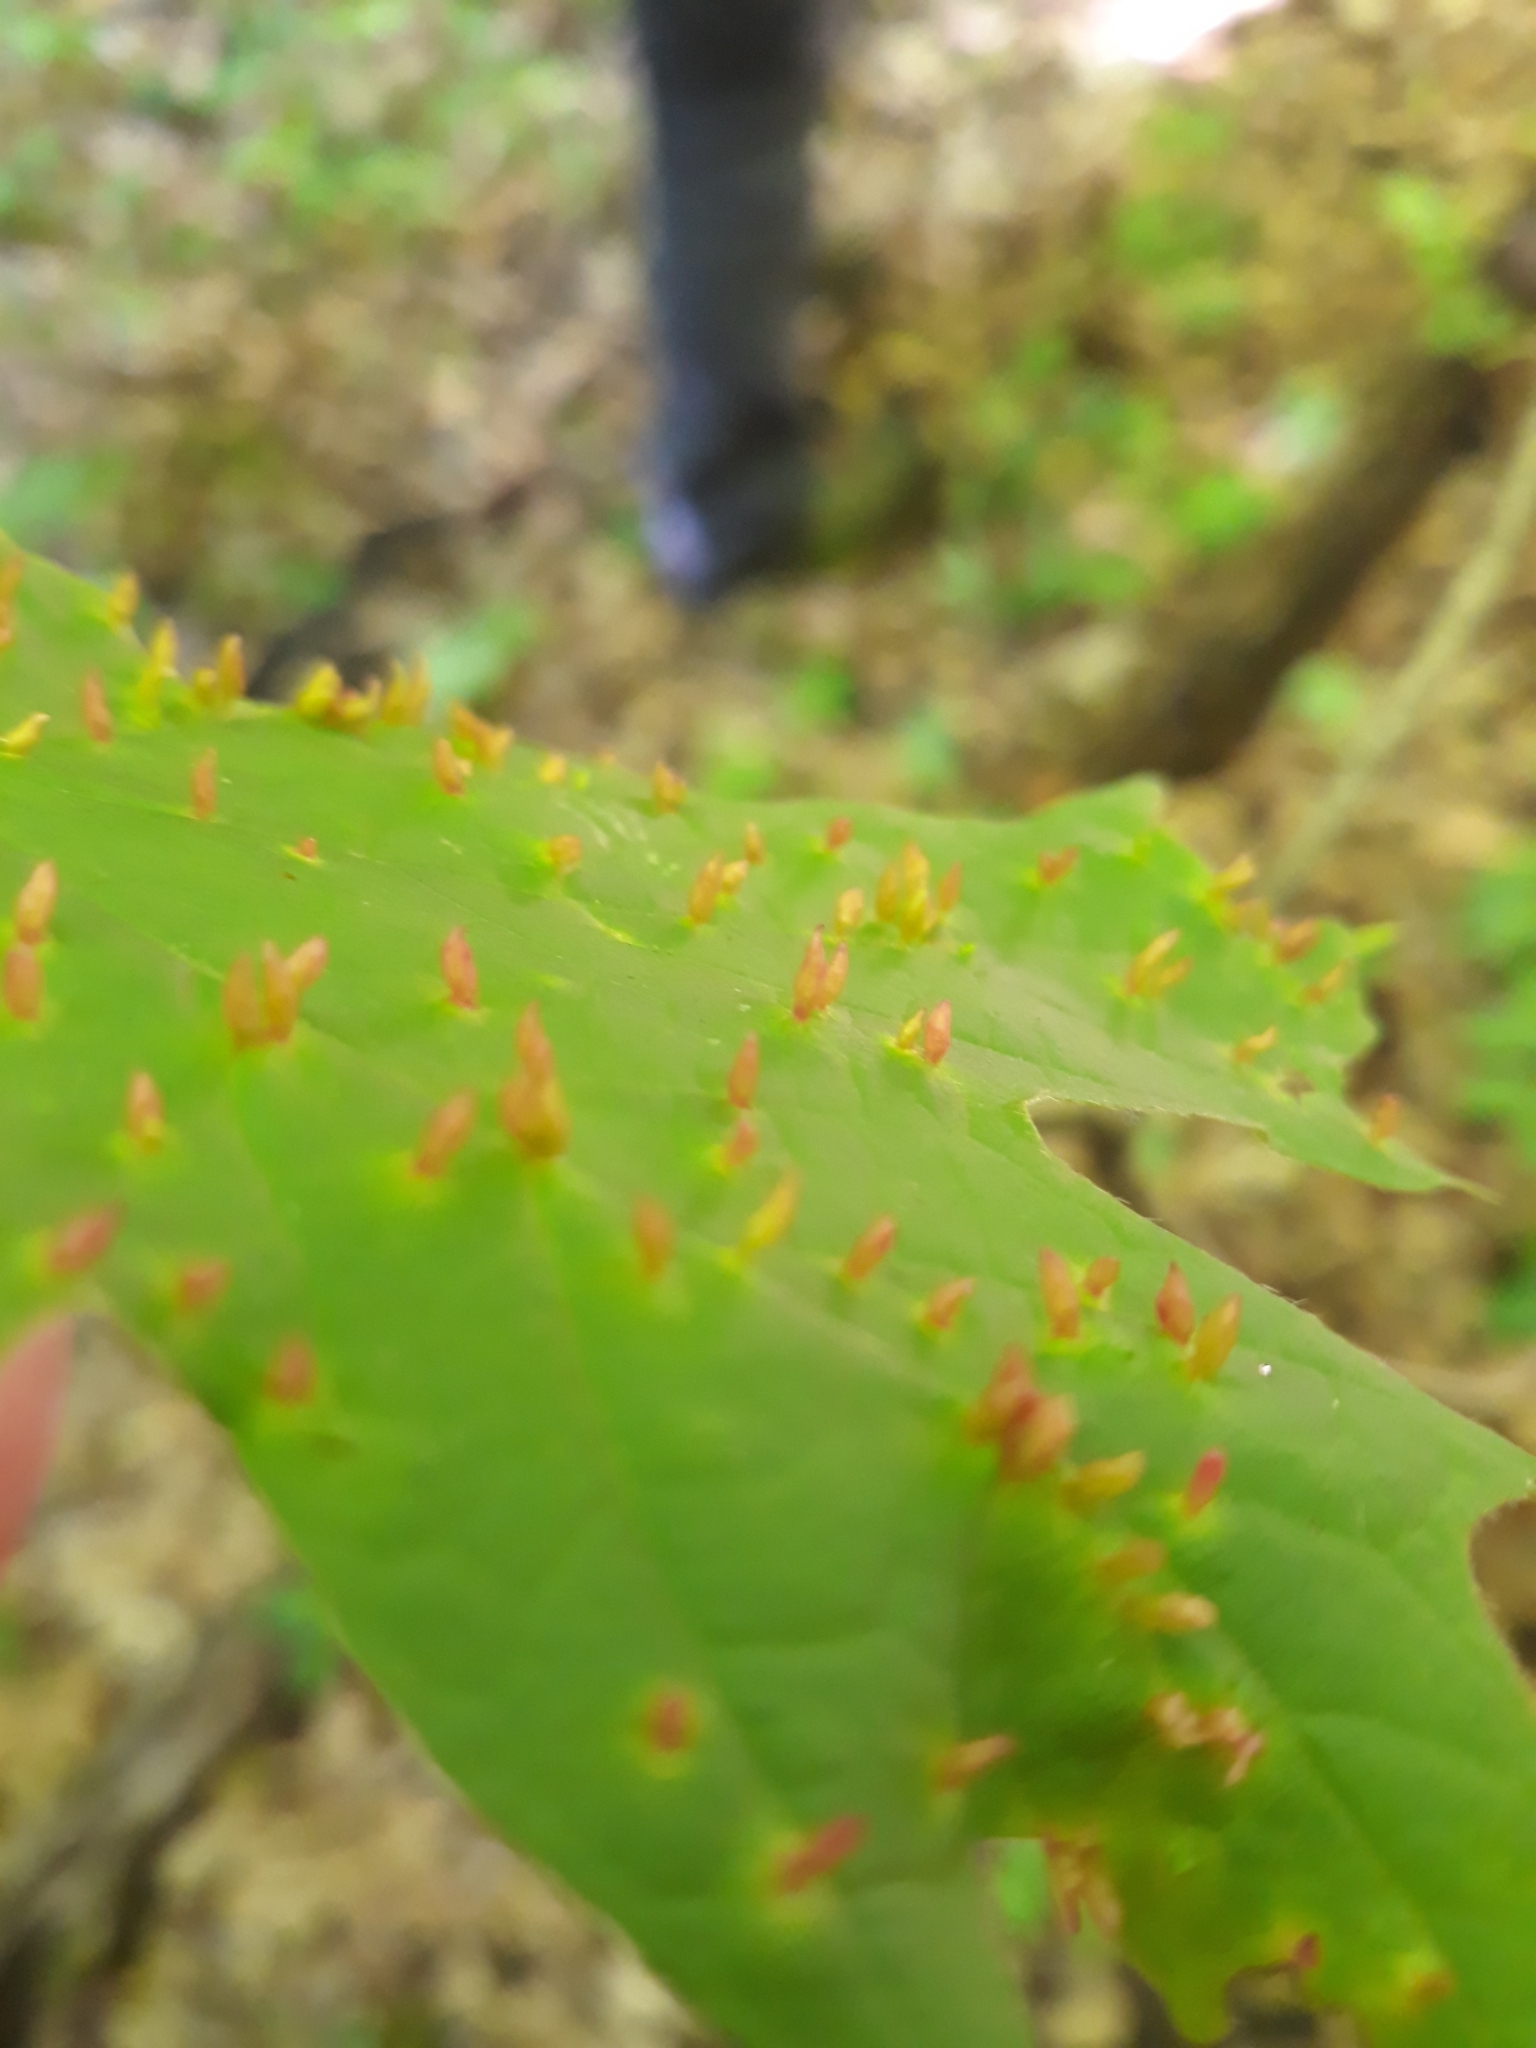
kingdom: Animalia
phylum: Arthropoda
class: Arachnida
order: Trombidiformes
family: Eriophyidae
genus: Vasates
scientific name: Vasates aceriscrumena
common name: Maple spindle gall mite
